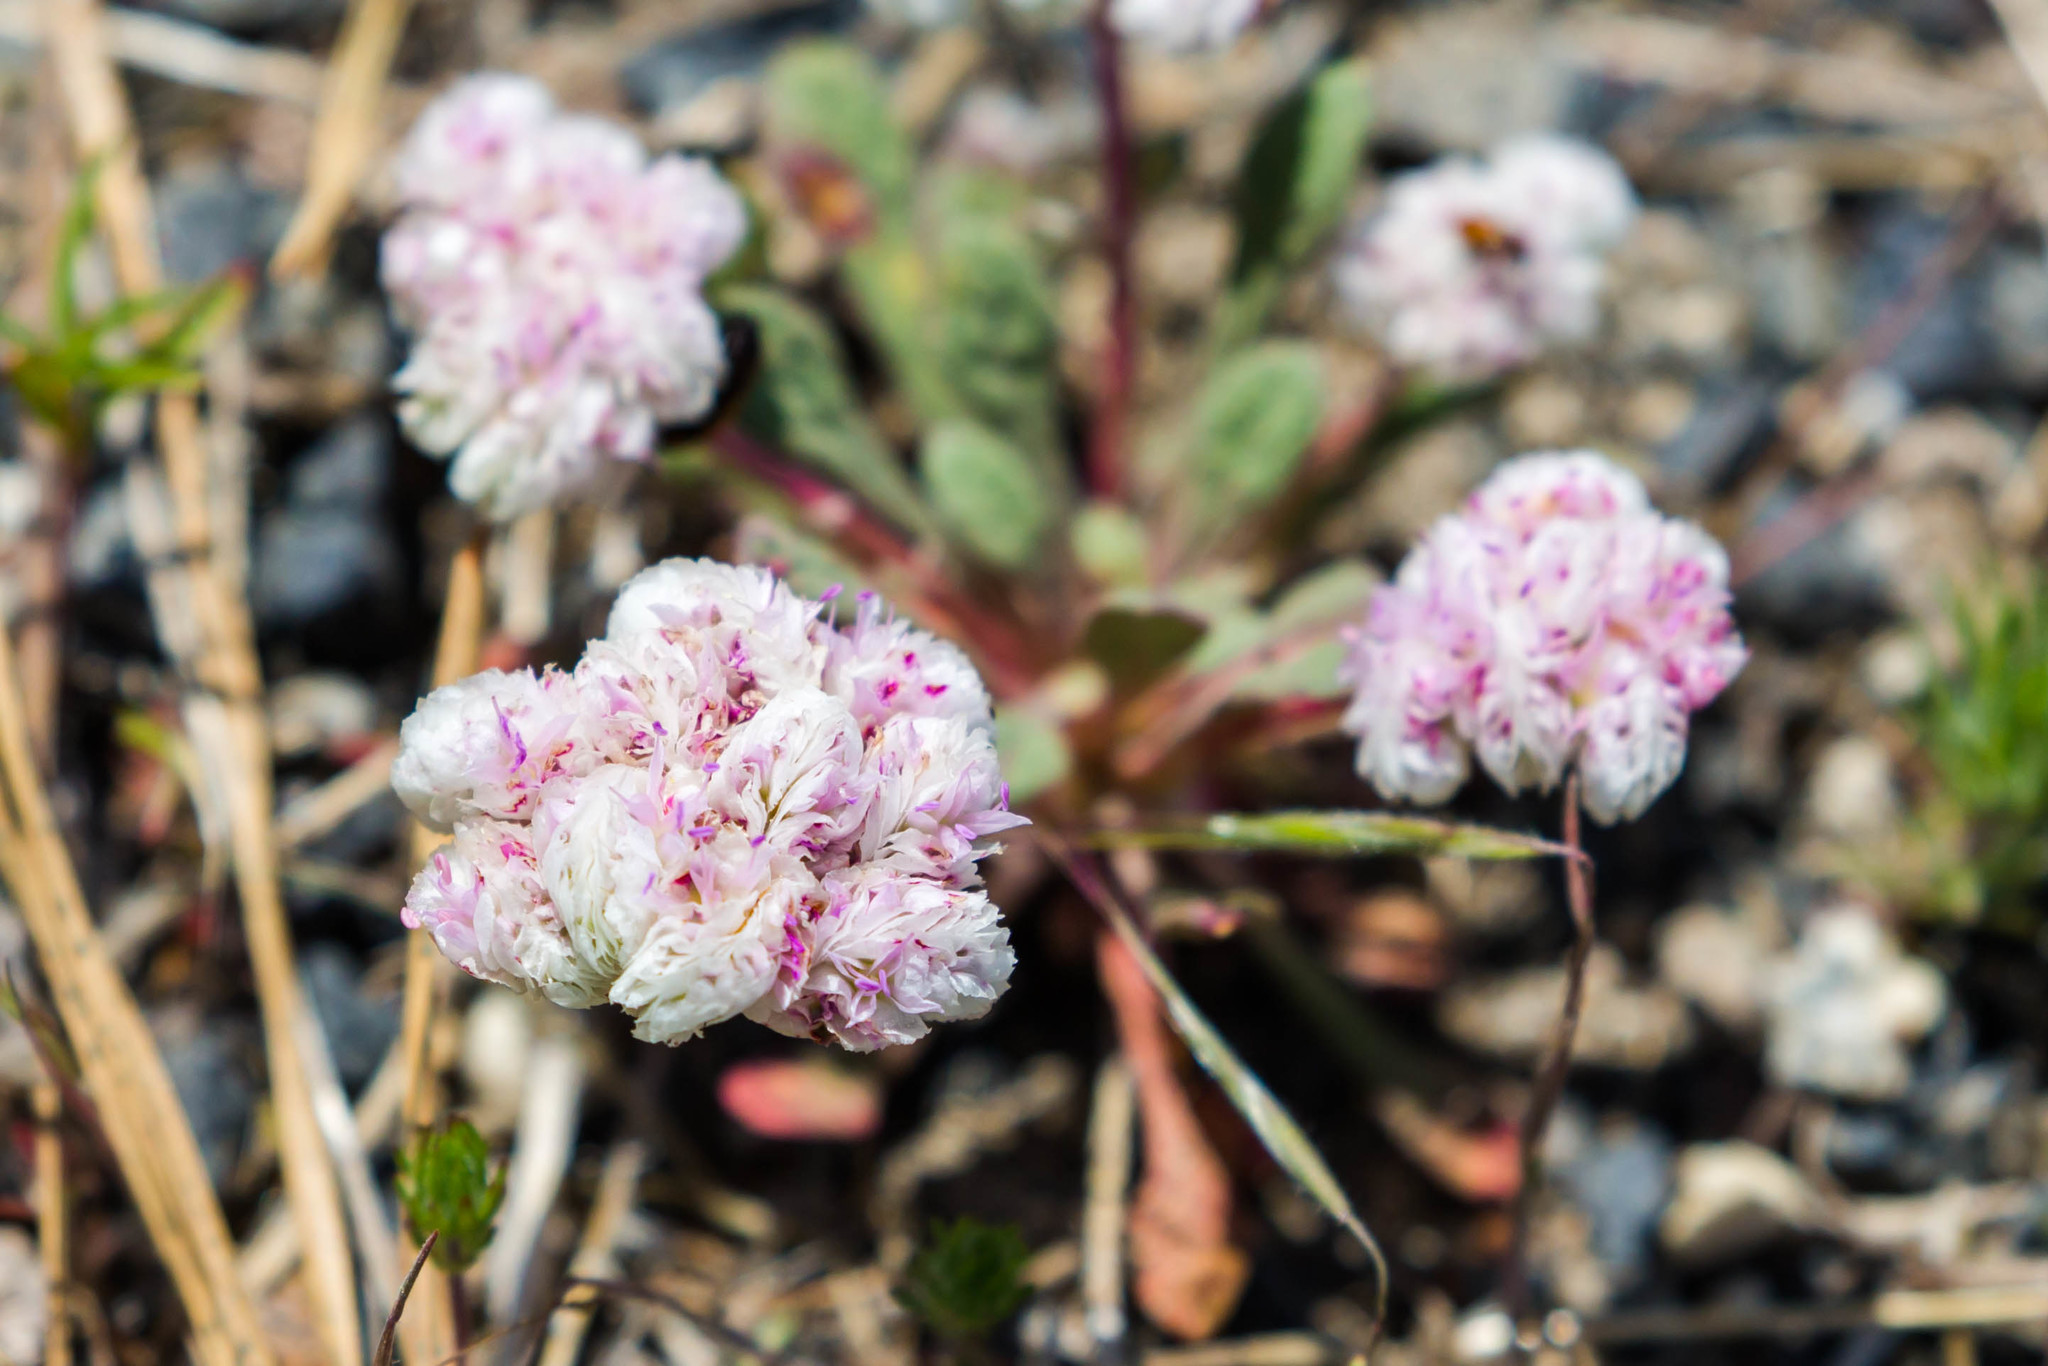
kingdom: Plantae
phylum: Tracheophyta
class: Magnoliopsida
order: Caryophyllales
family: Montiaceae
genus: Calyptridium
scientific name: Calyptridium monospermum
